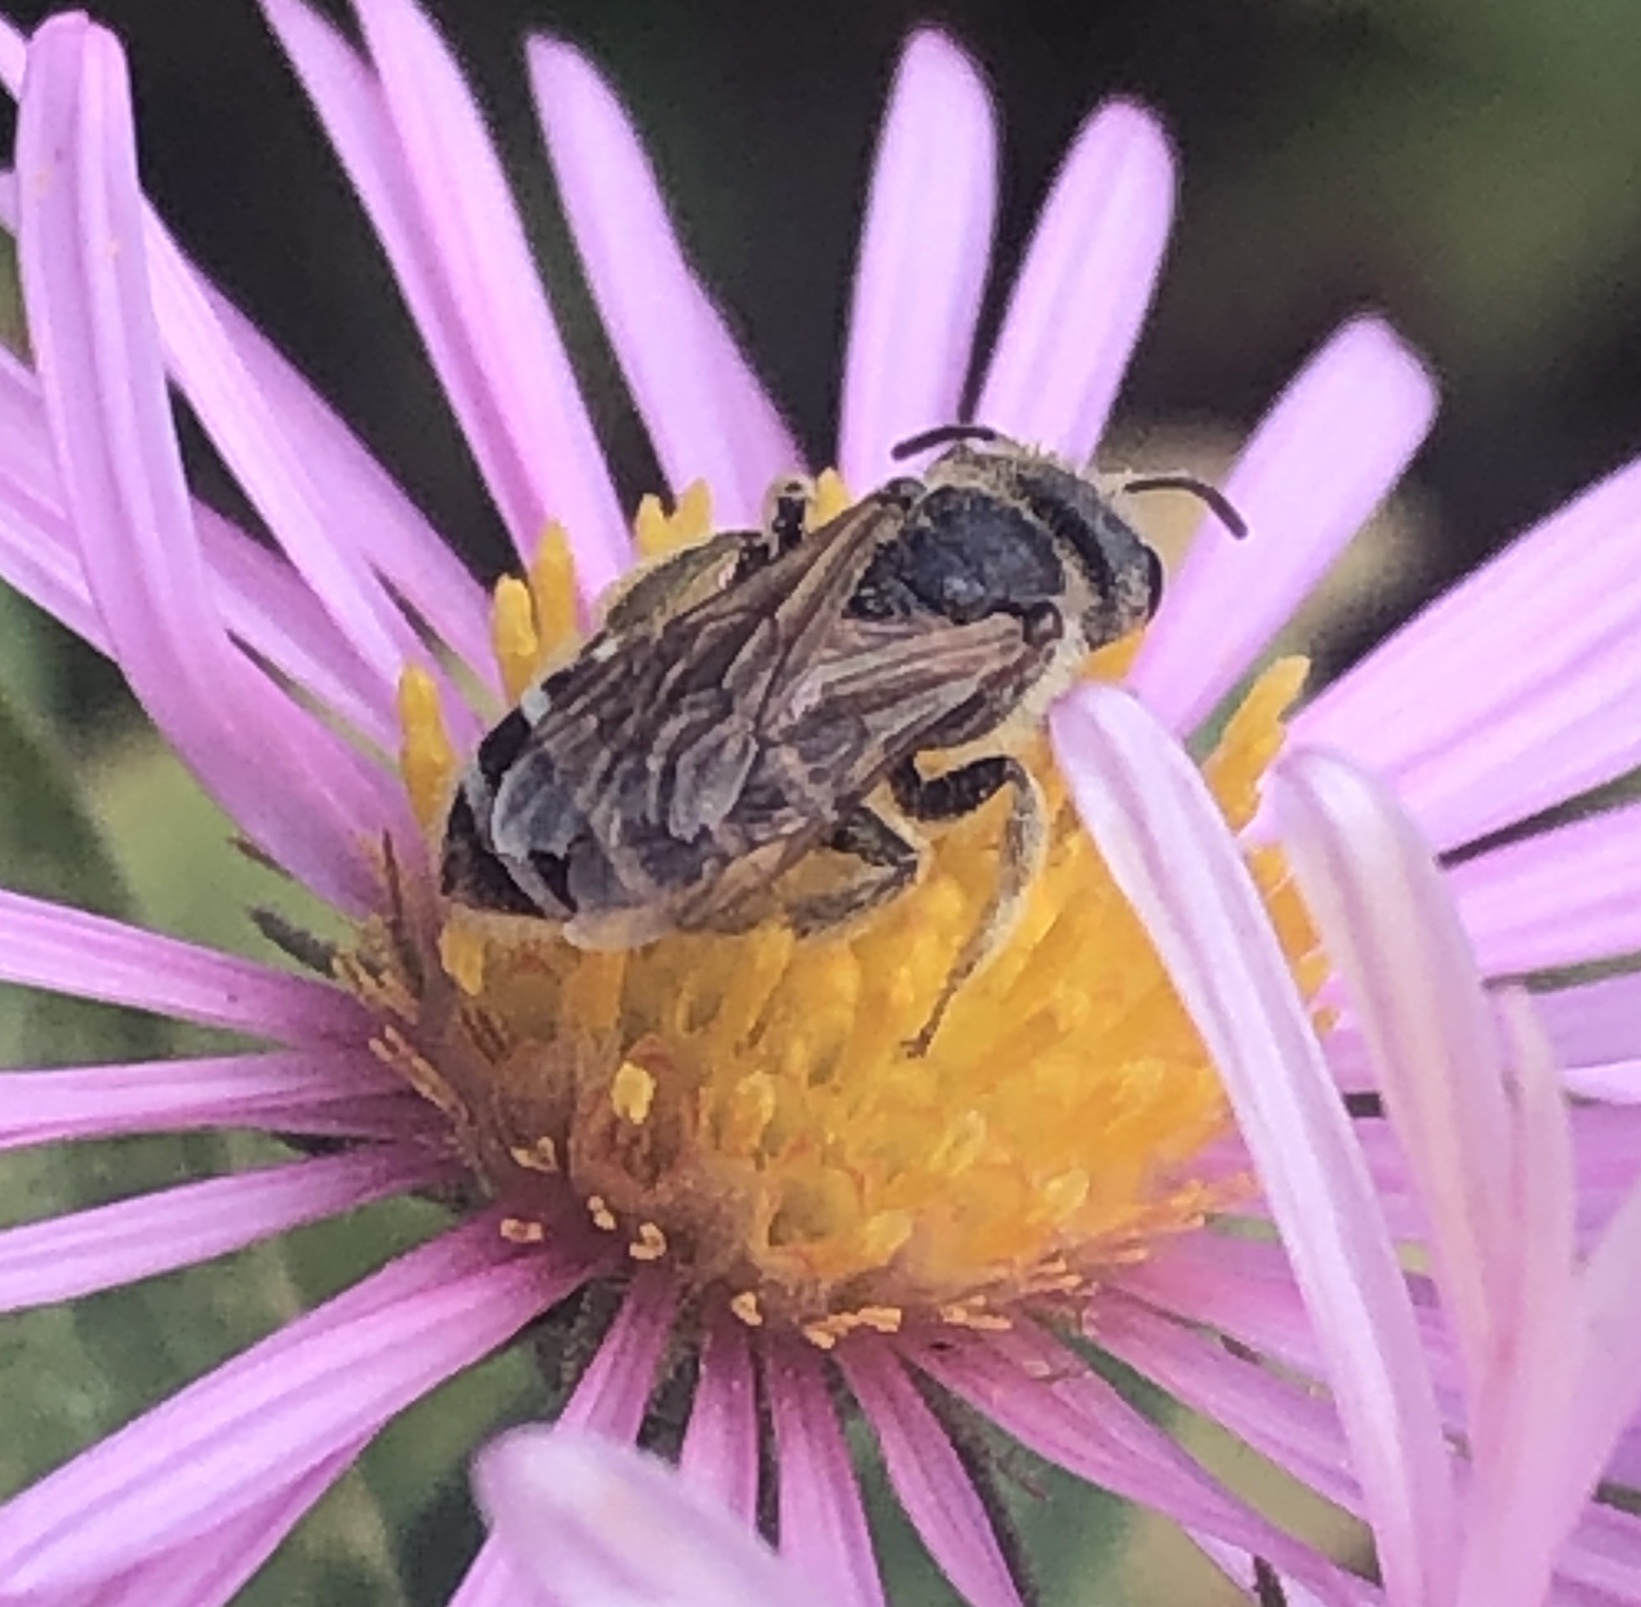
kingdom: Animalia
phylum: Arthropoda
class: Insecta
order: Hymenoptera
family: Halictidae
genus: Halictus
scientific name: Halictus ligatus
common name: Ligated furrow bee
